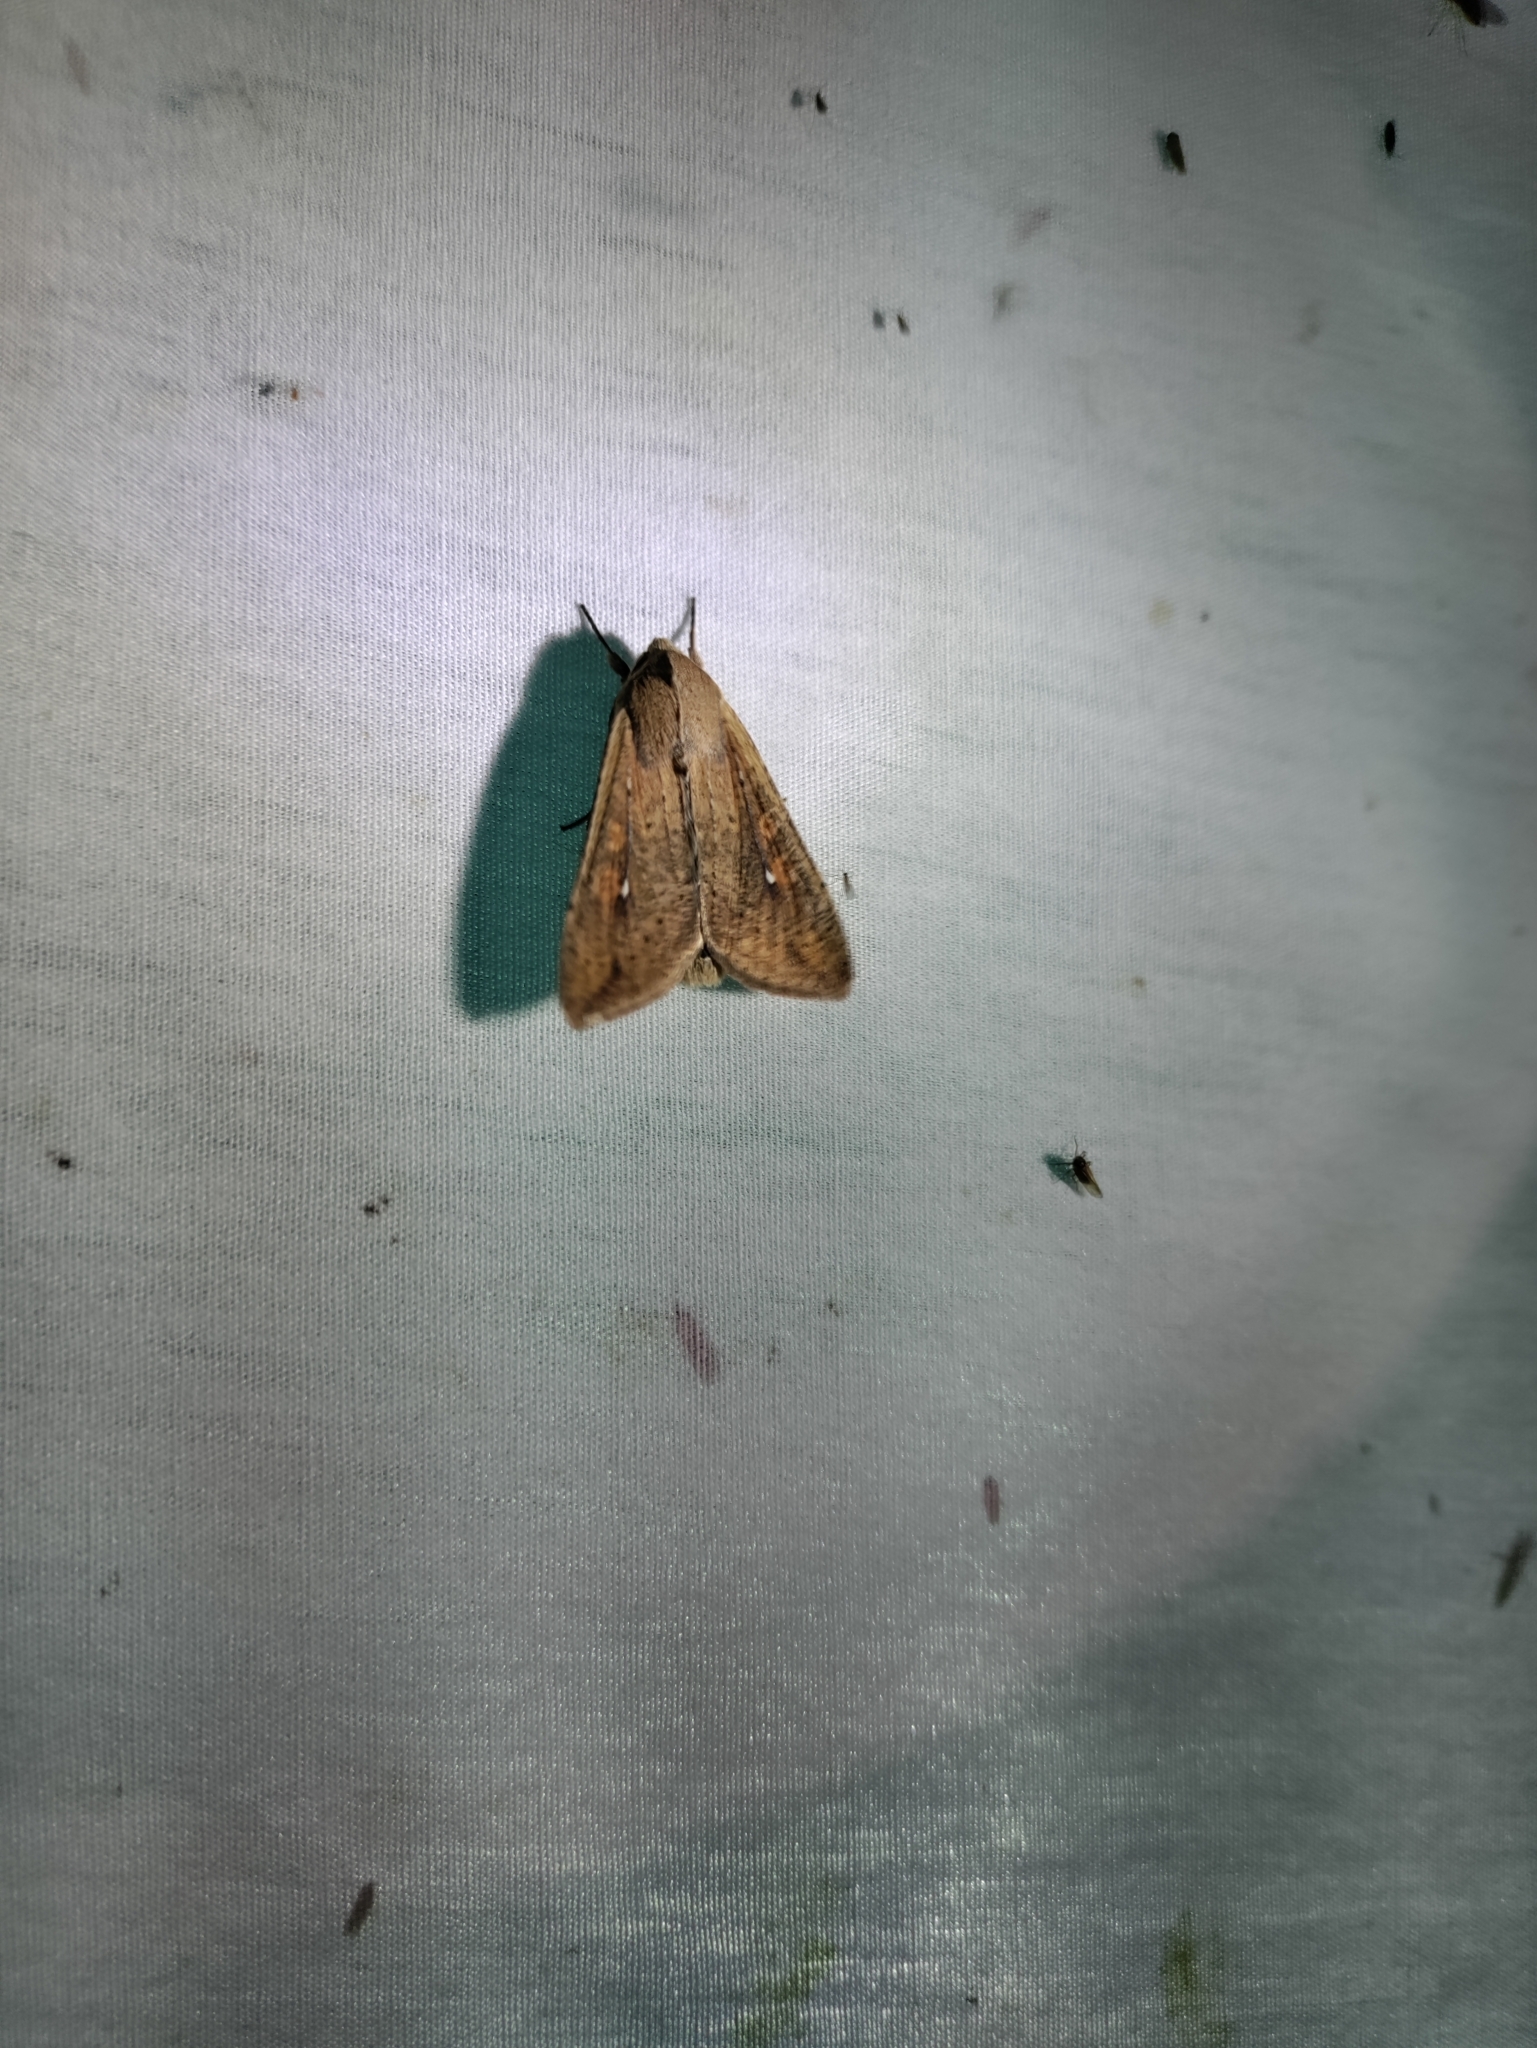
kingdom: Animalia
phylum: Arthropoda
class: Insecta
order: Lepidoptera
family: Noctuidae
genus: Mythimna
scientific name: Mythimna unipuncta
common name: White-speck
